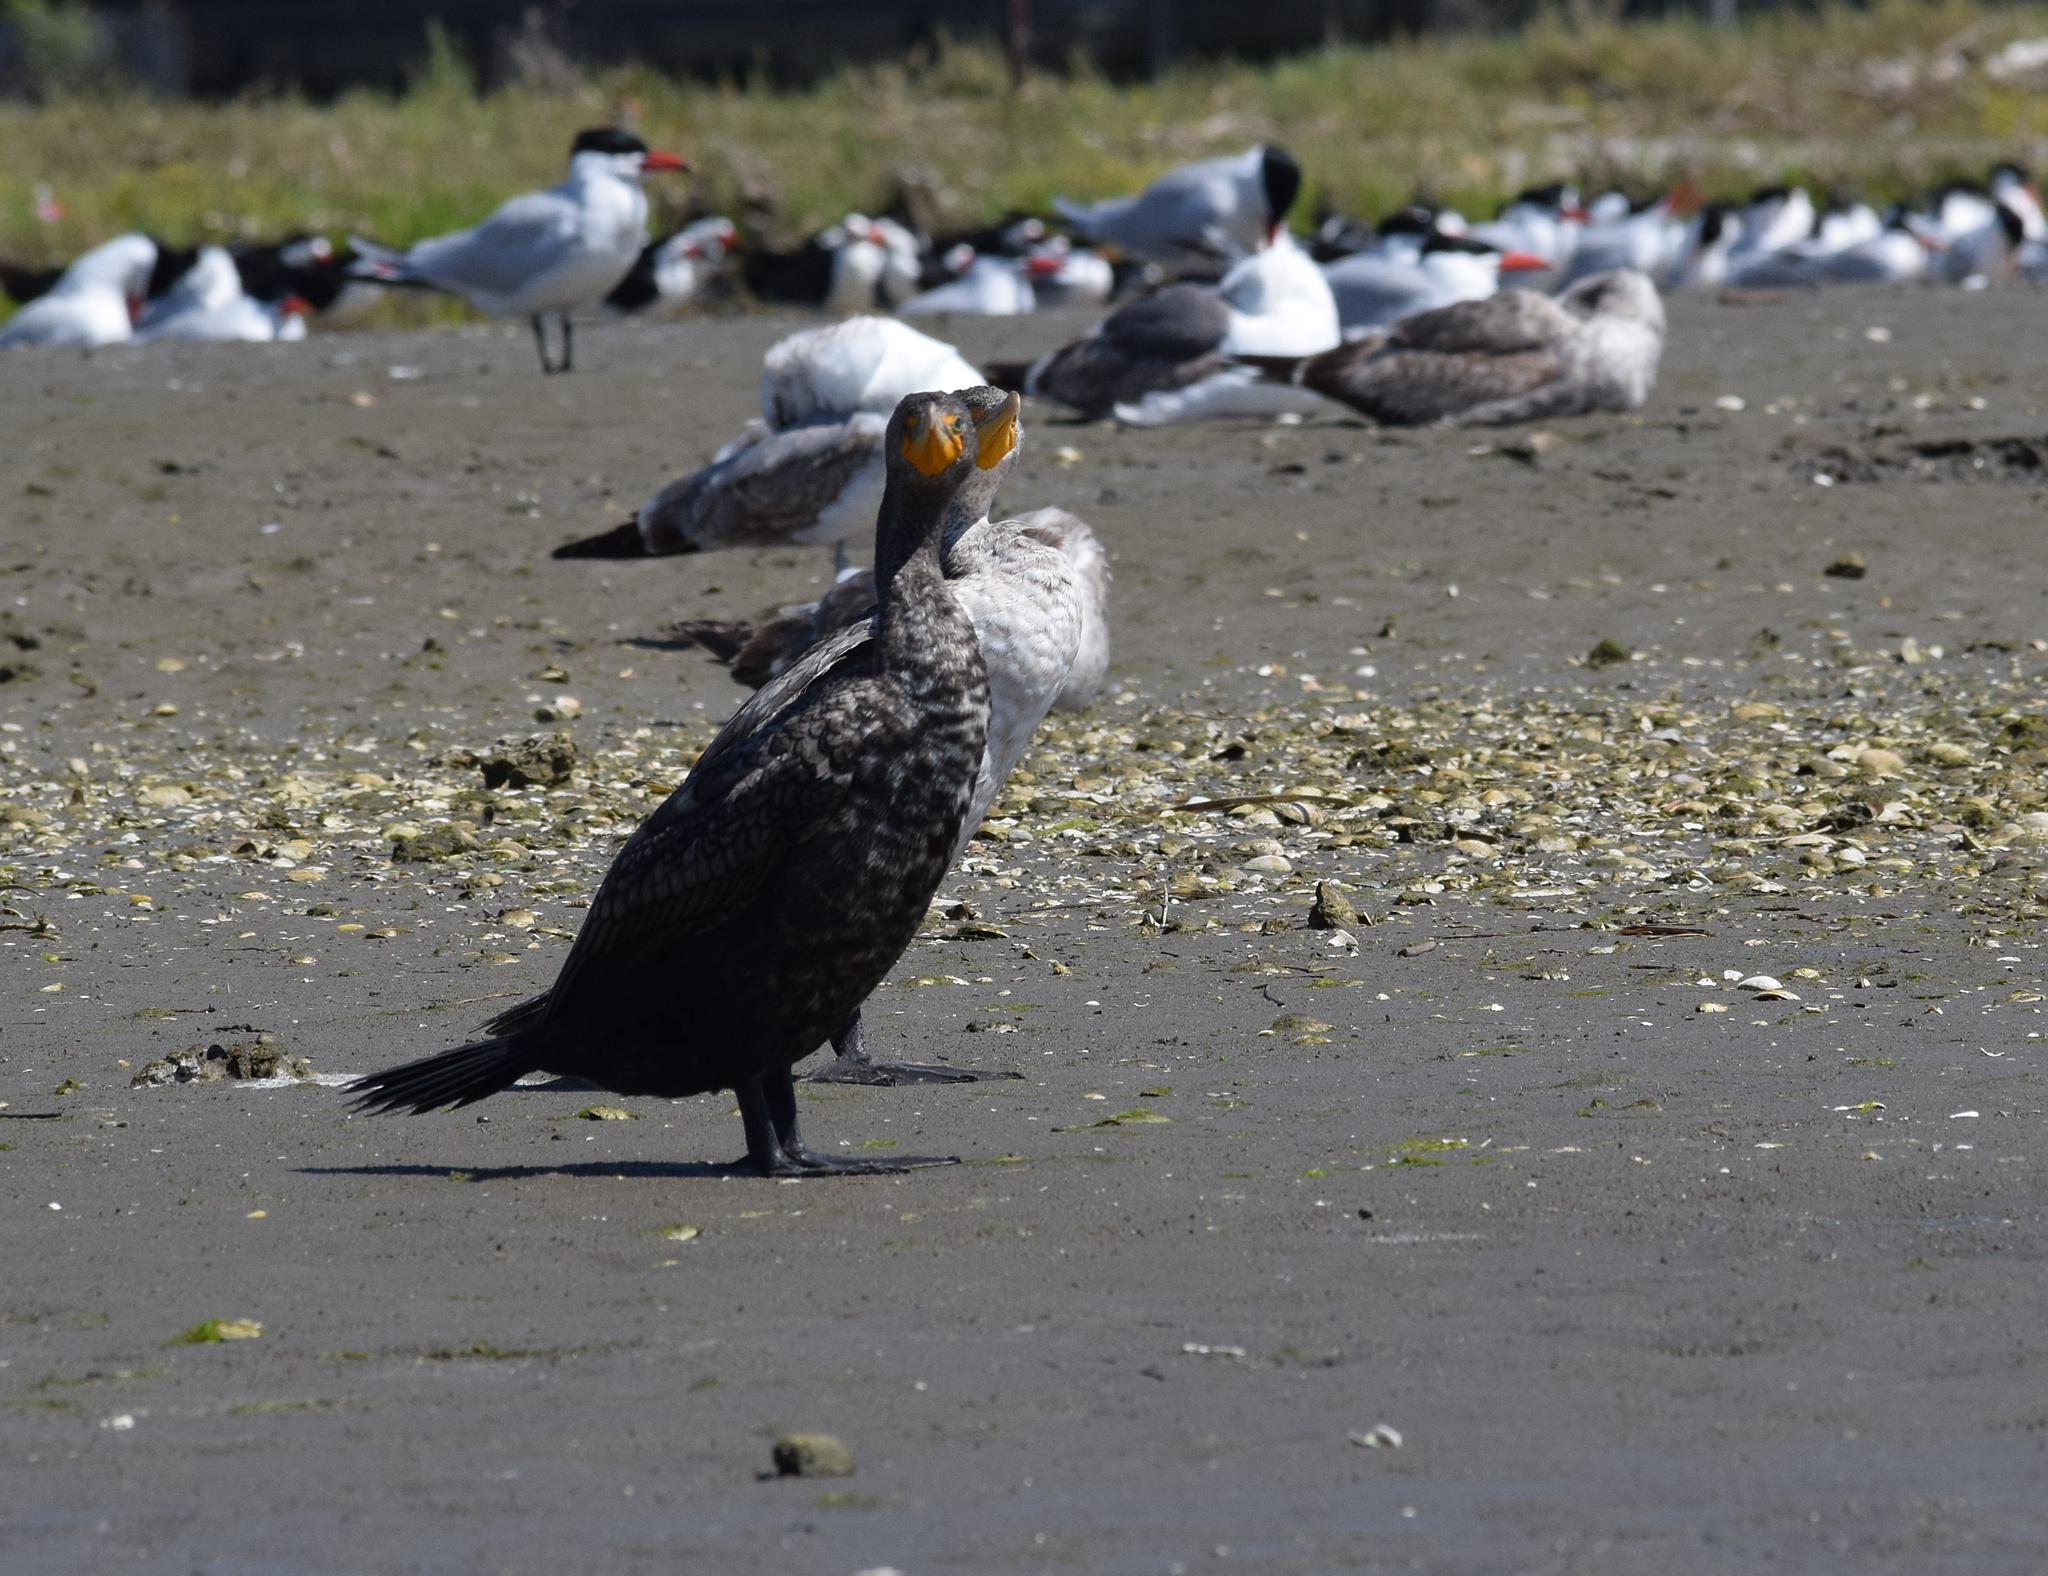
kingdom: Animalia
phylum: Chordata
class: Aves
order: Suliformes
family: Phalacrocoracidae
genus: Phalacrocorax
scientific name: Phalacrocorax auritus
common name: Double-crested cormorant
